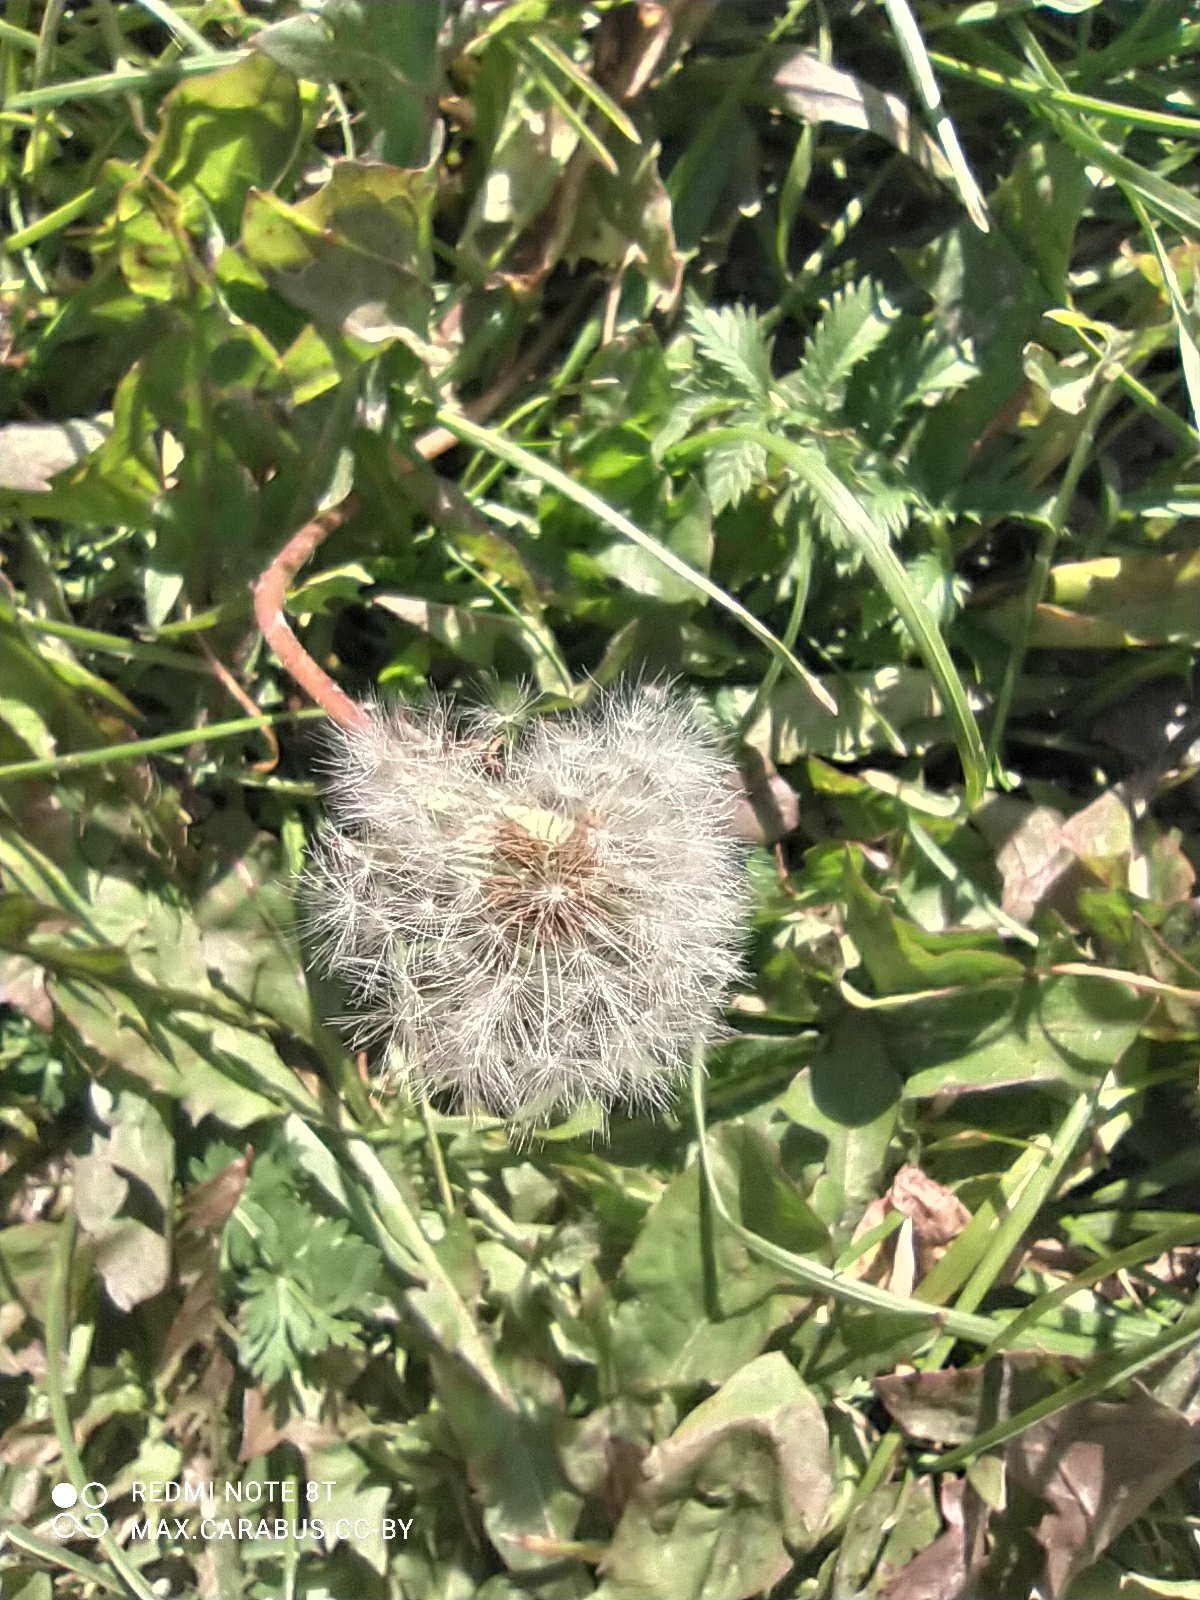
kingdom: Plantae
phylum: Tracheophyta
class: Magnoliopsida
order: Asterales
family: Asteraceae
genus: Taraxacum
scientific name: Taraxacum officinale
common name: Common dandelion
